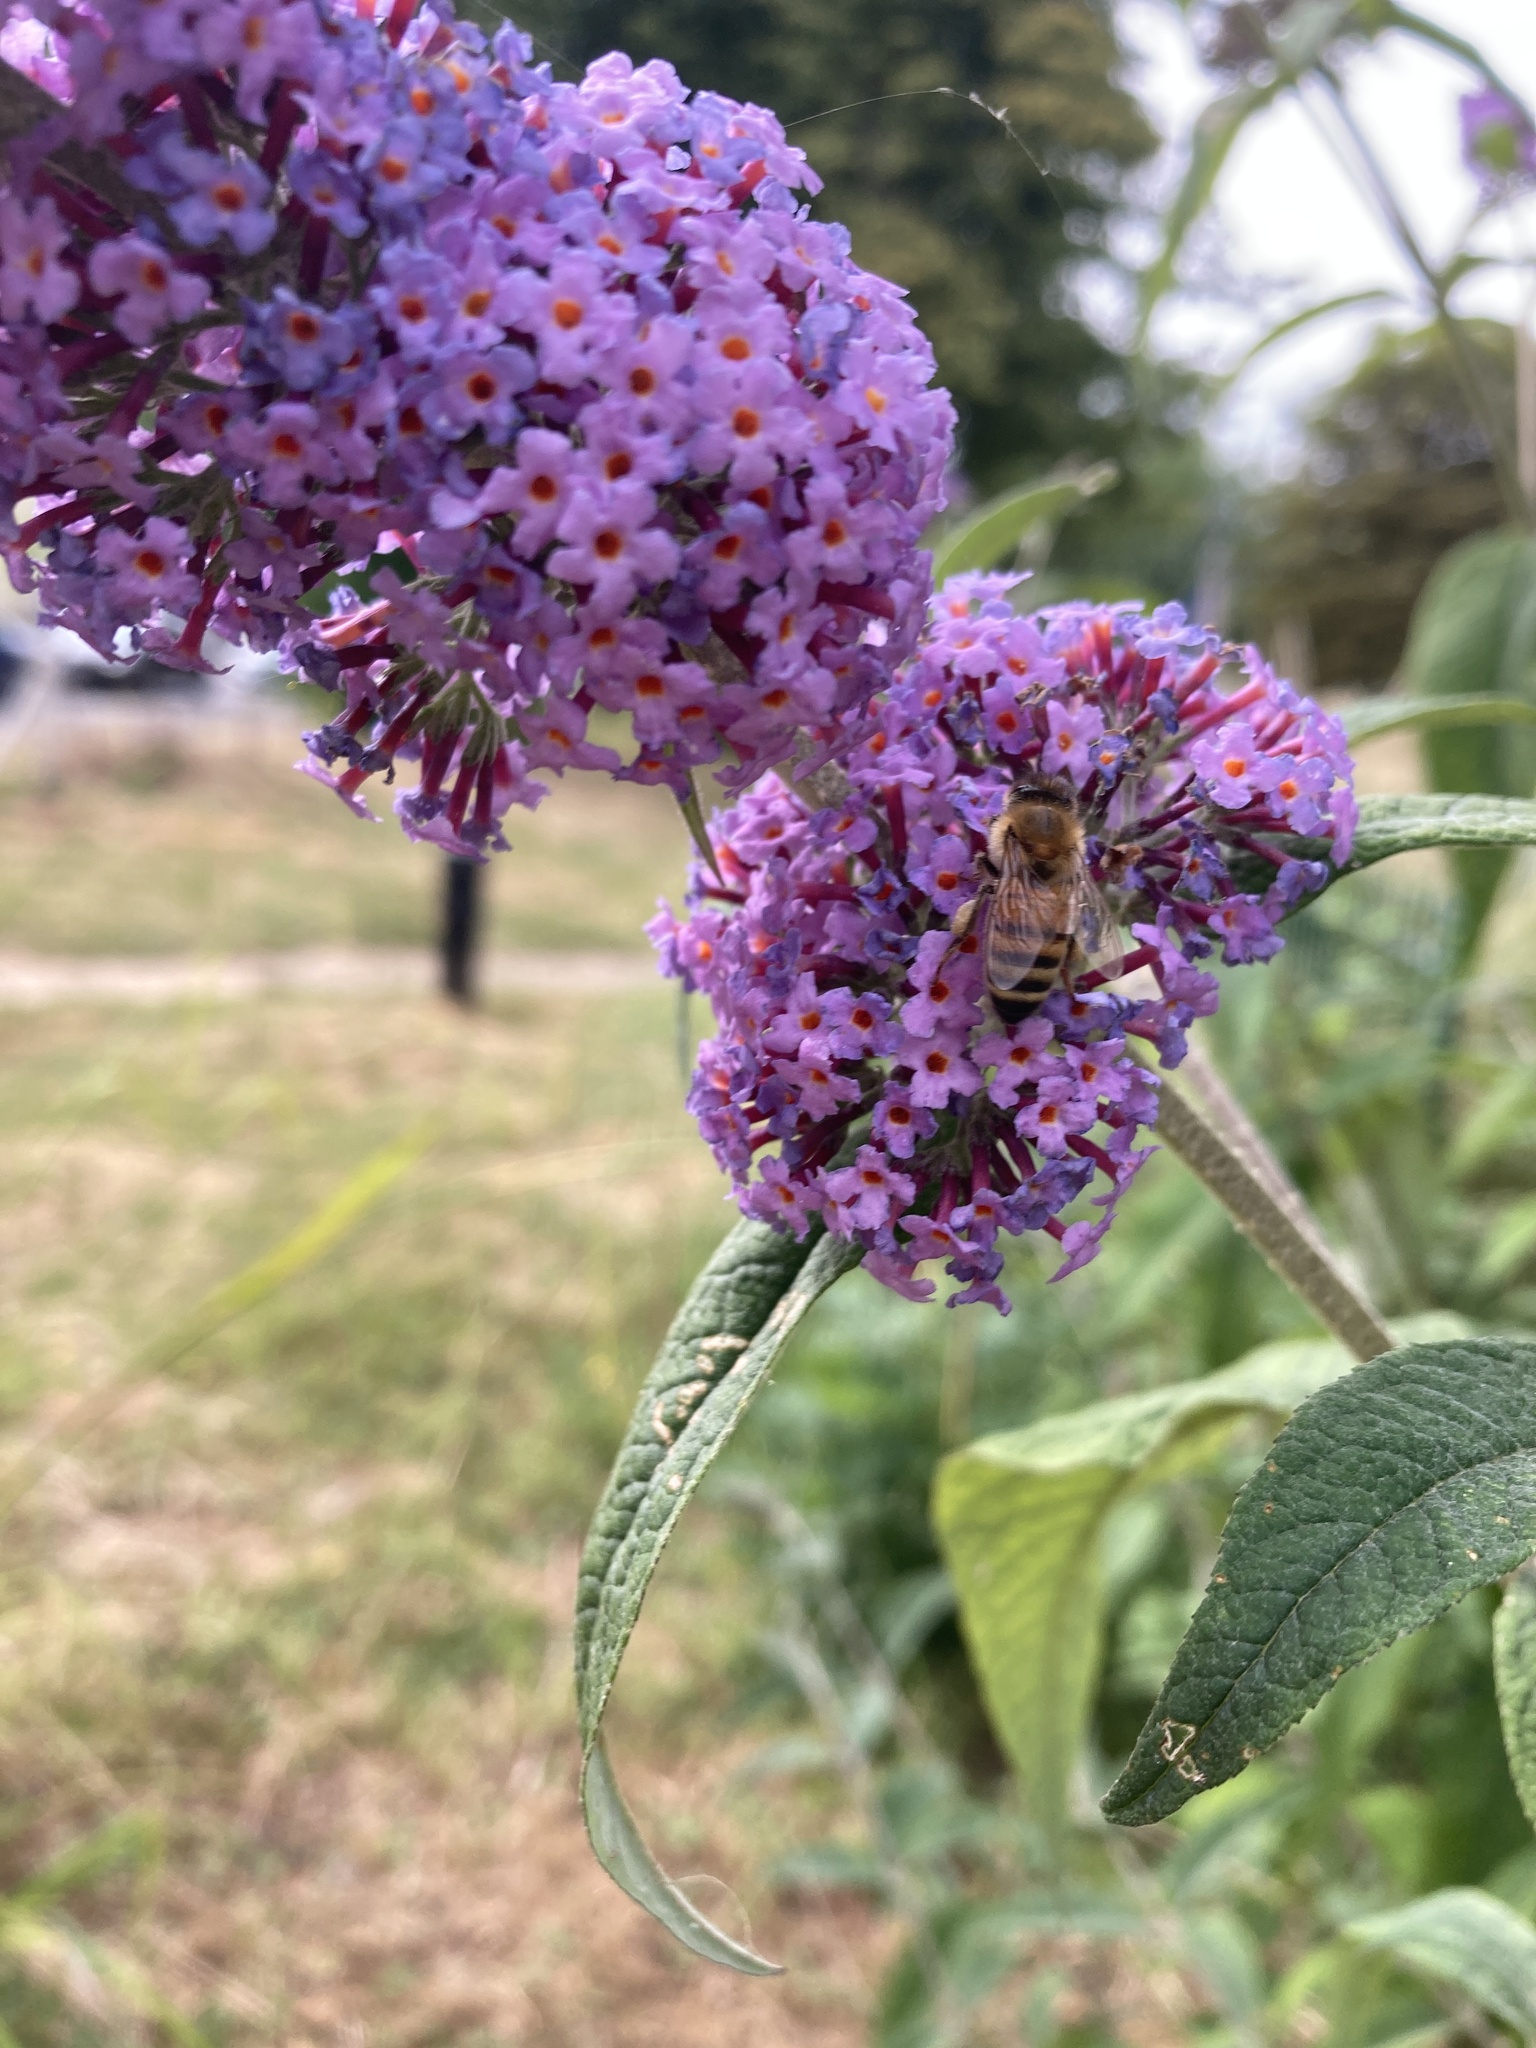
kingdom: Animalia
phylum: Arthropoda
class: Insecta
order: Hymenoptera
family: Apidae
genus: Apis
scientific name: Apis mellifera
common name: Honey bee
